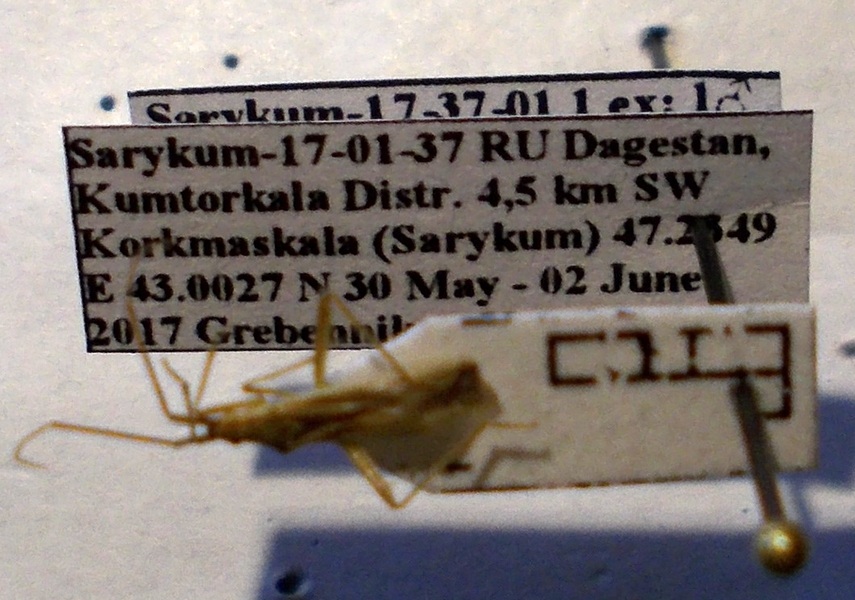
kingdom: Animalia
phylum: Arthropoda
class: Insecta
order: Hemiptera
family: Miridae
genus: Stenodema
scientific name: Stenodema calcarata
